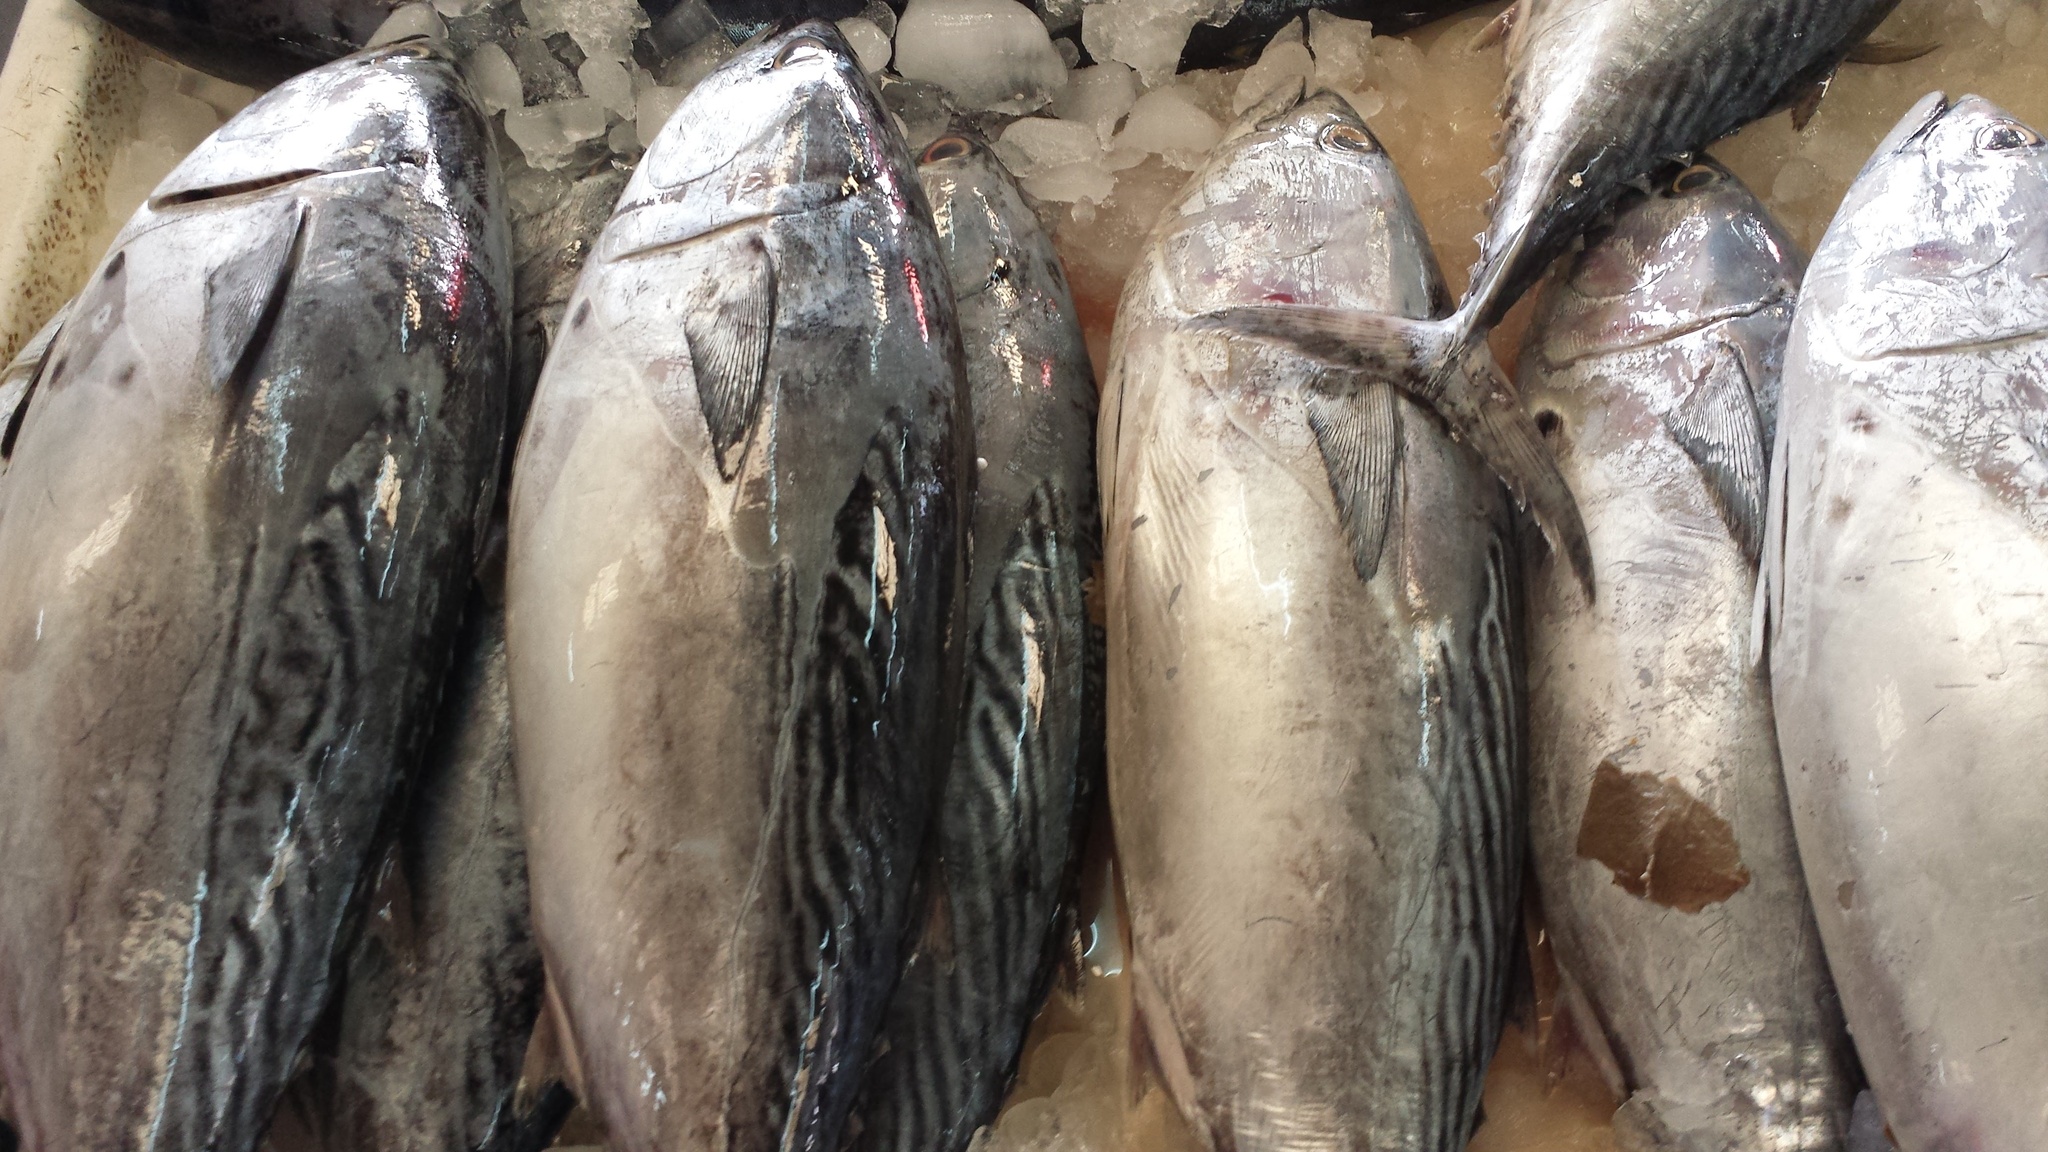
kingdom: Animalia
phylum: Chordata
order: Perciformes
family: Scombridae
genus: Euthynnus
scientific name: Euthynnus affinis
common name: Mackerel tuna
